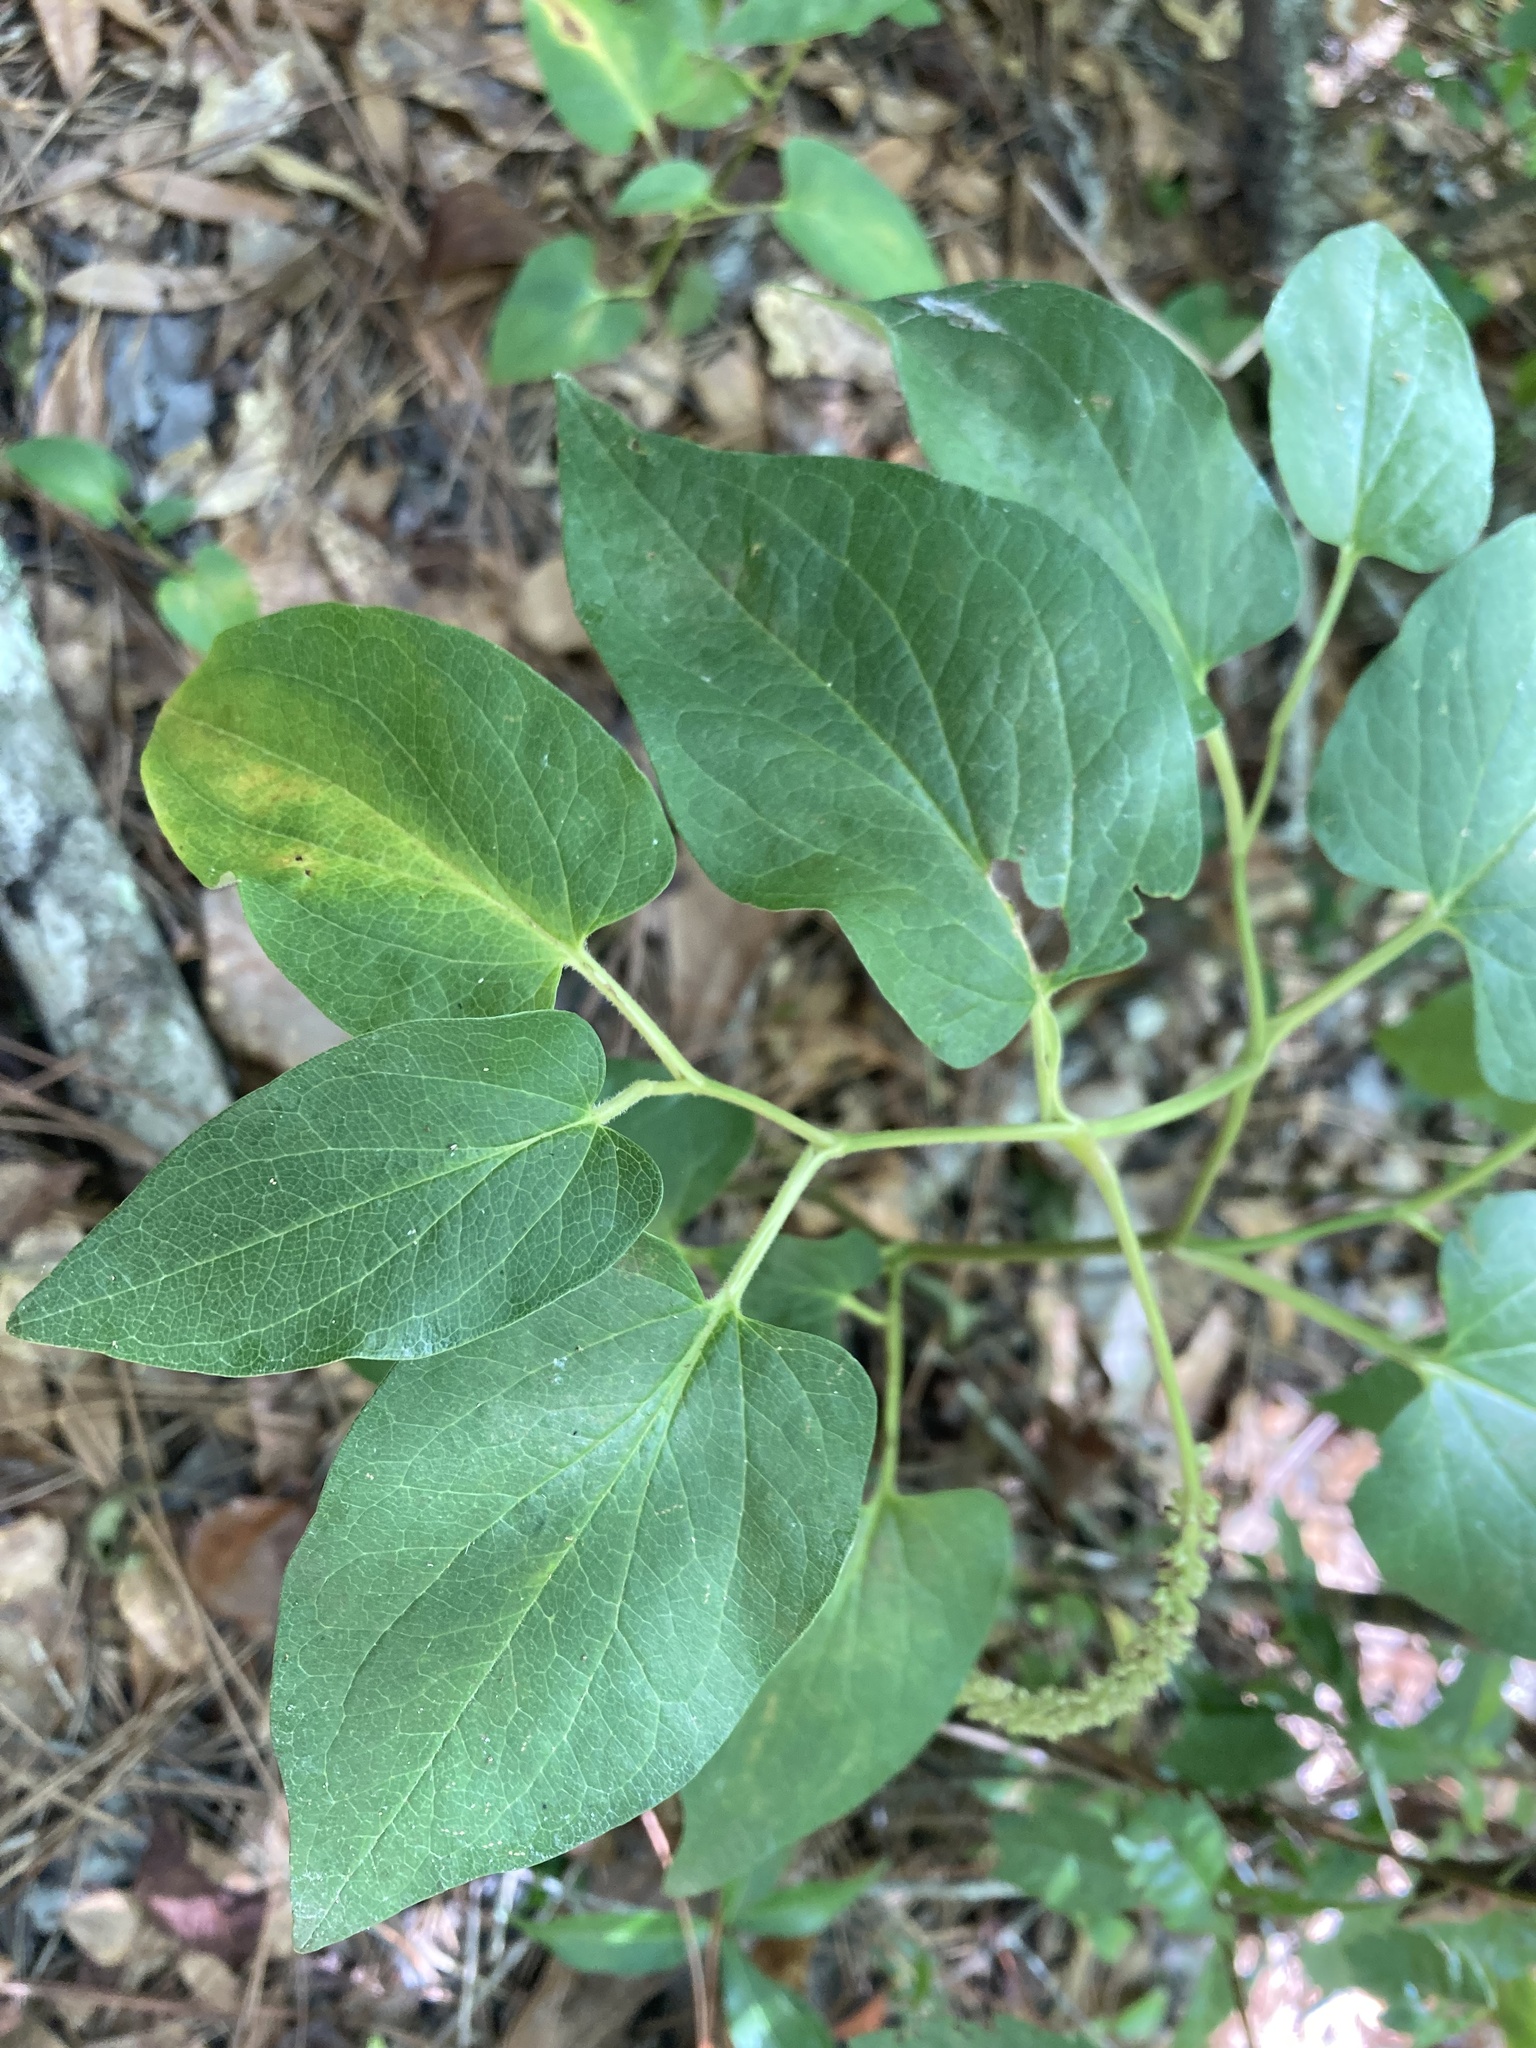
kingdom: Plantae
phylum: Tracheophyta
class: Magnoliopsida
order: Piperales
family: Saururaceae
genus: Saururus
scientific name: Saururus cernuus
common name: Lizard's-tail
